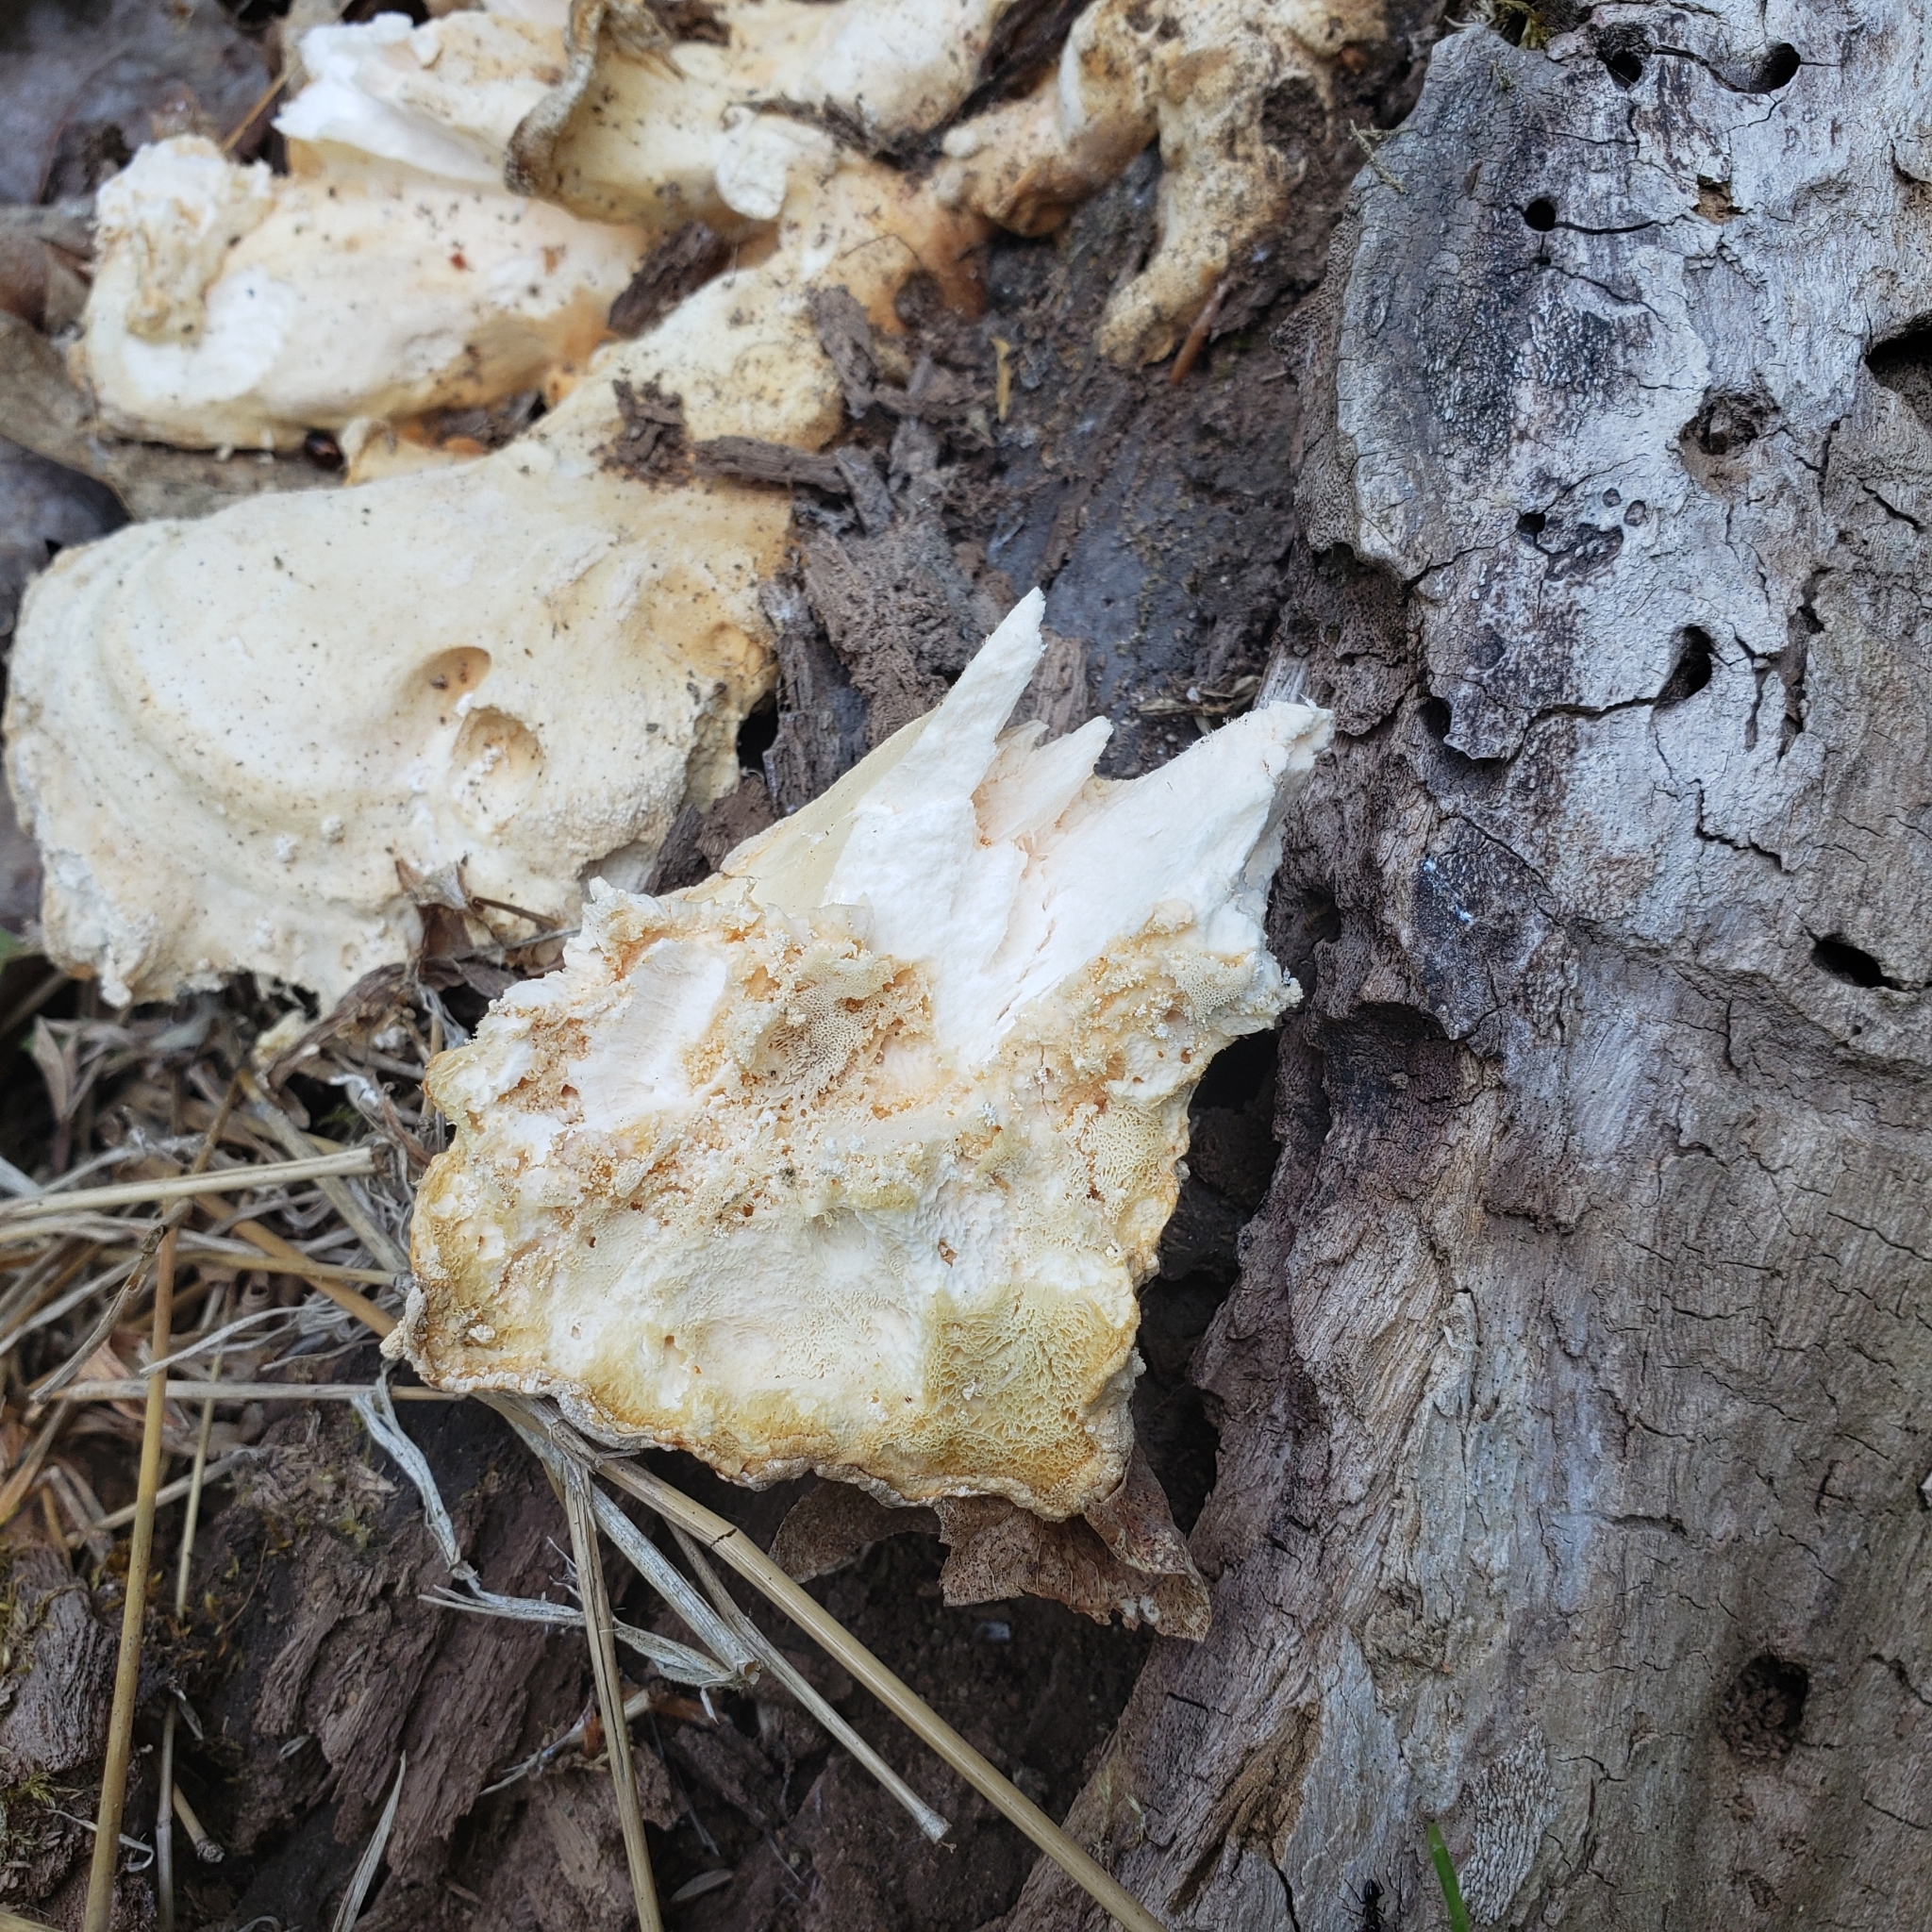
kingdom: Fungi
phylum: Basidiomycota
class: Agaricomycetes
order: Polyporales
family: Laetiporaceae
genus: Laetiporus
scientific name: Laetiporus sulphureus
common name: Chicken of the woods
